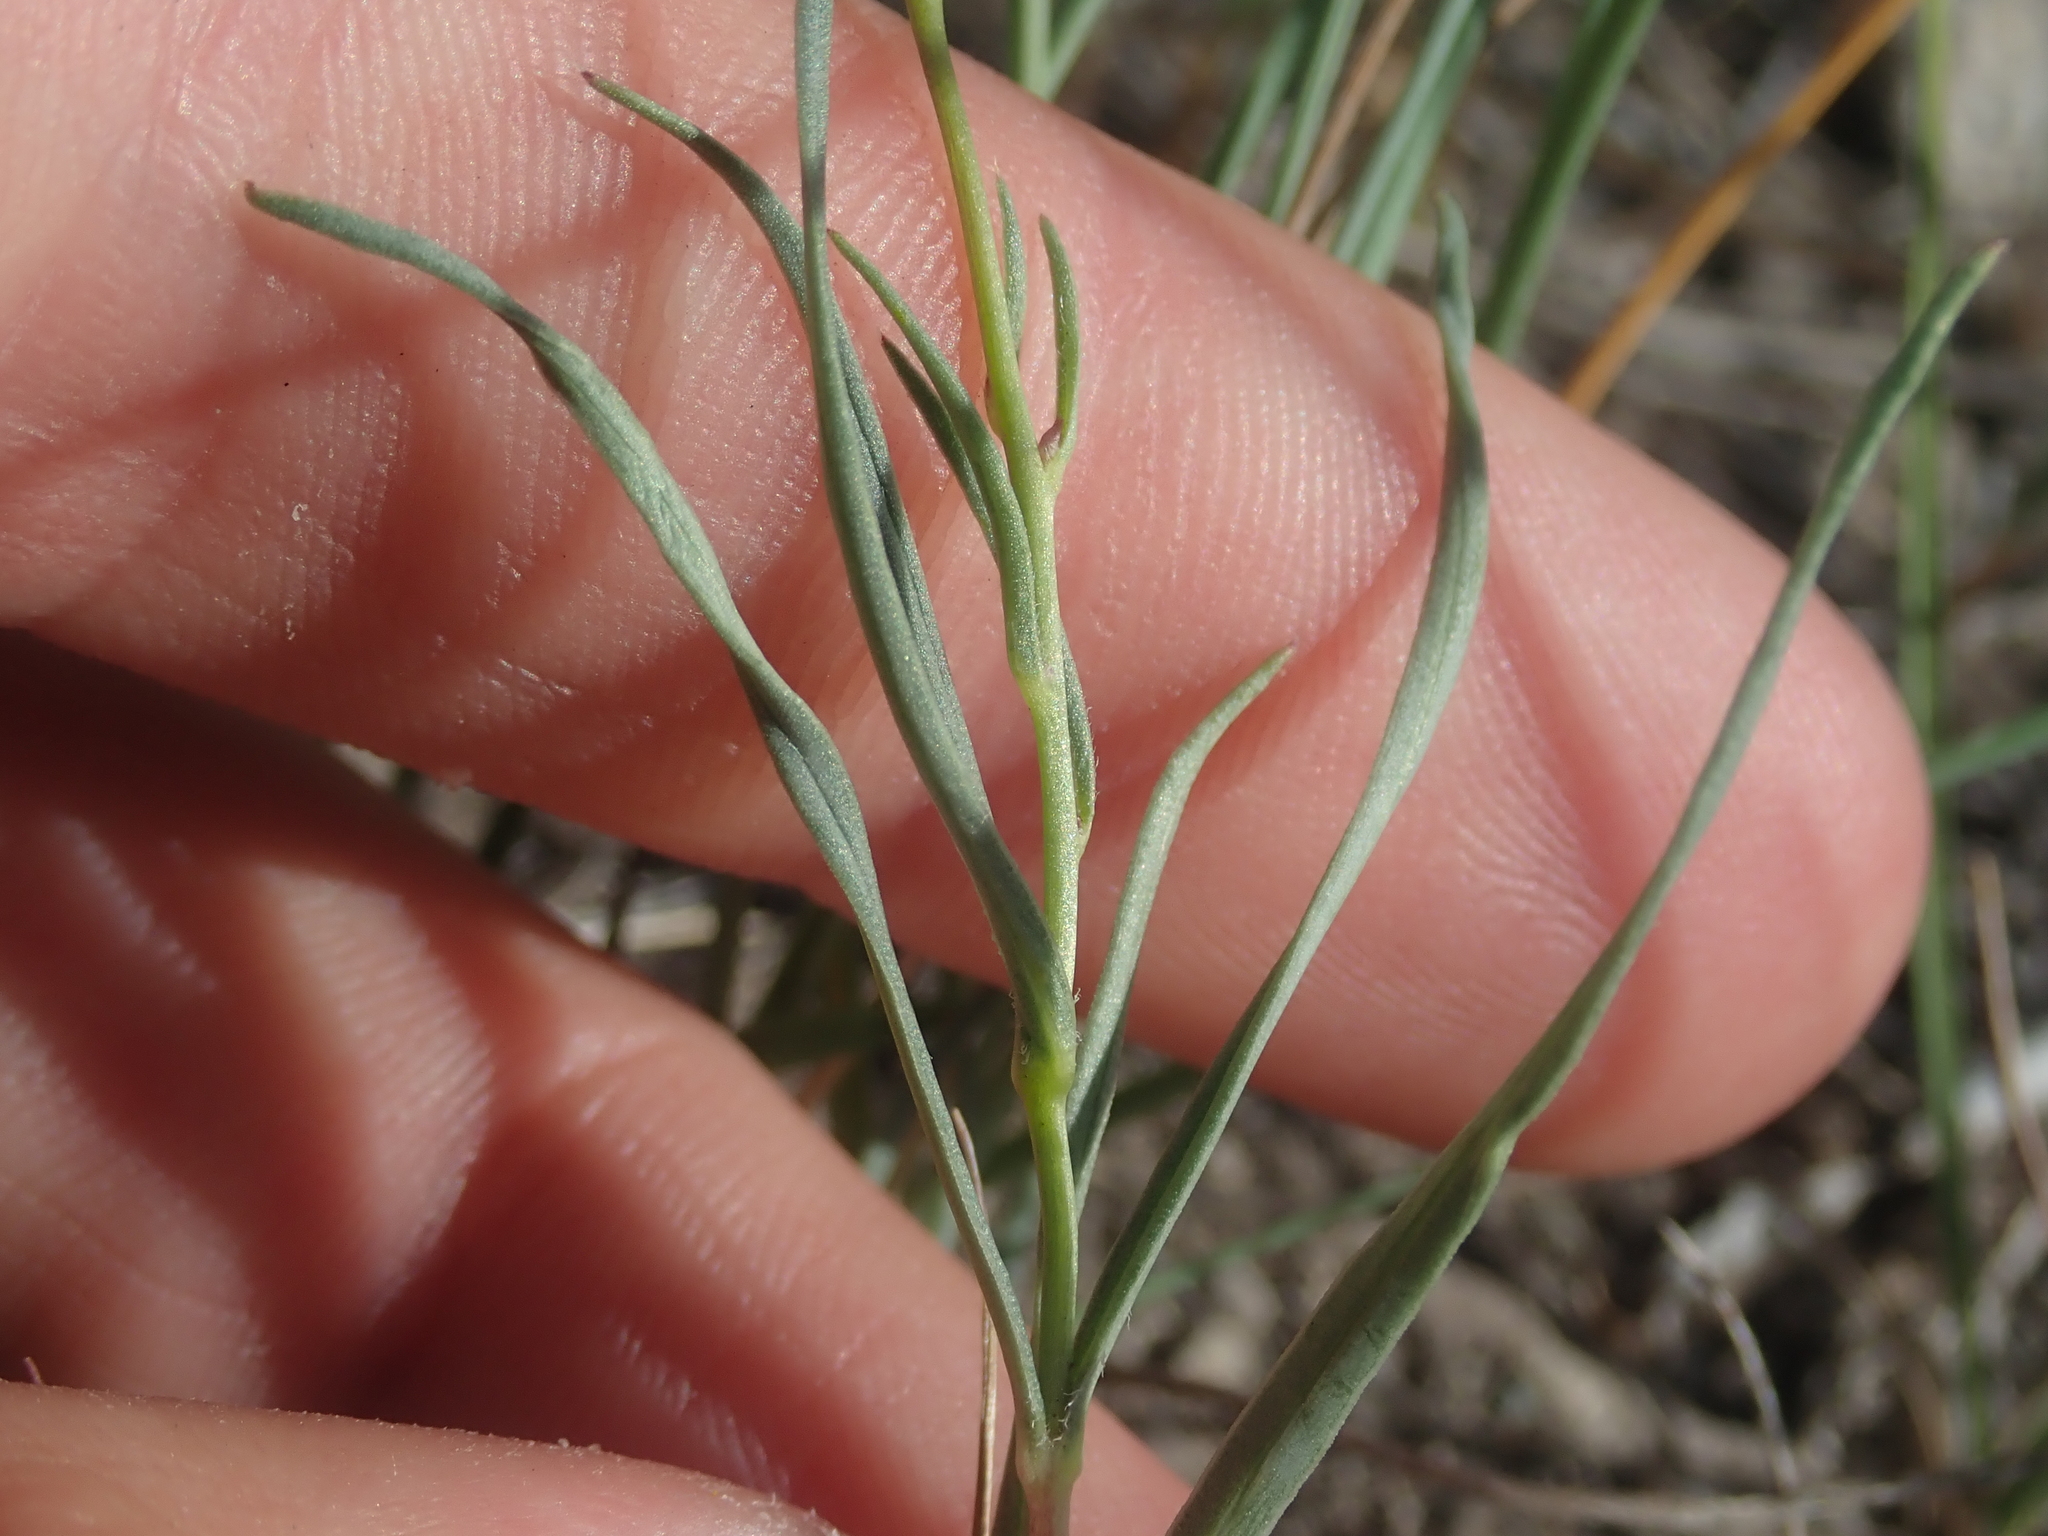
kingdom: Plantae
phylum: Tracheophyta
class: Magnoliopsida
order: Ericales
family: Polemoniaceae
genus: Phlox
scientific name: Phlox longifolia
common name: Longleaf phlox
